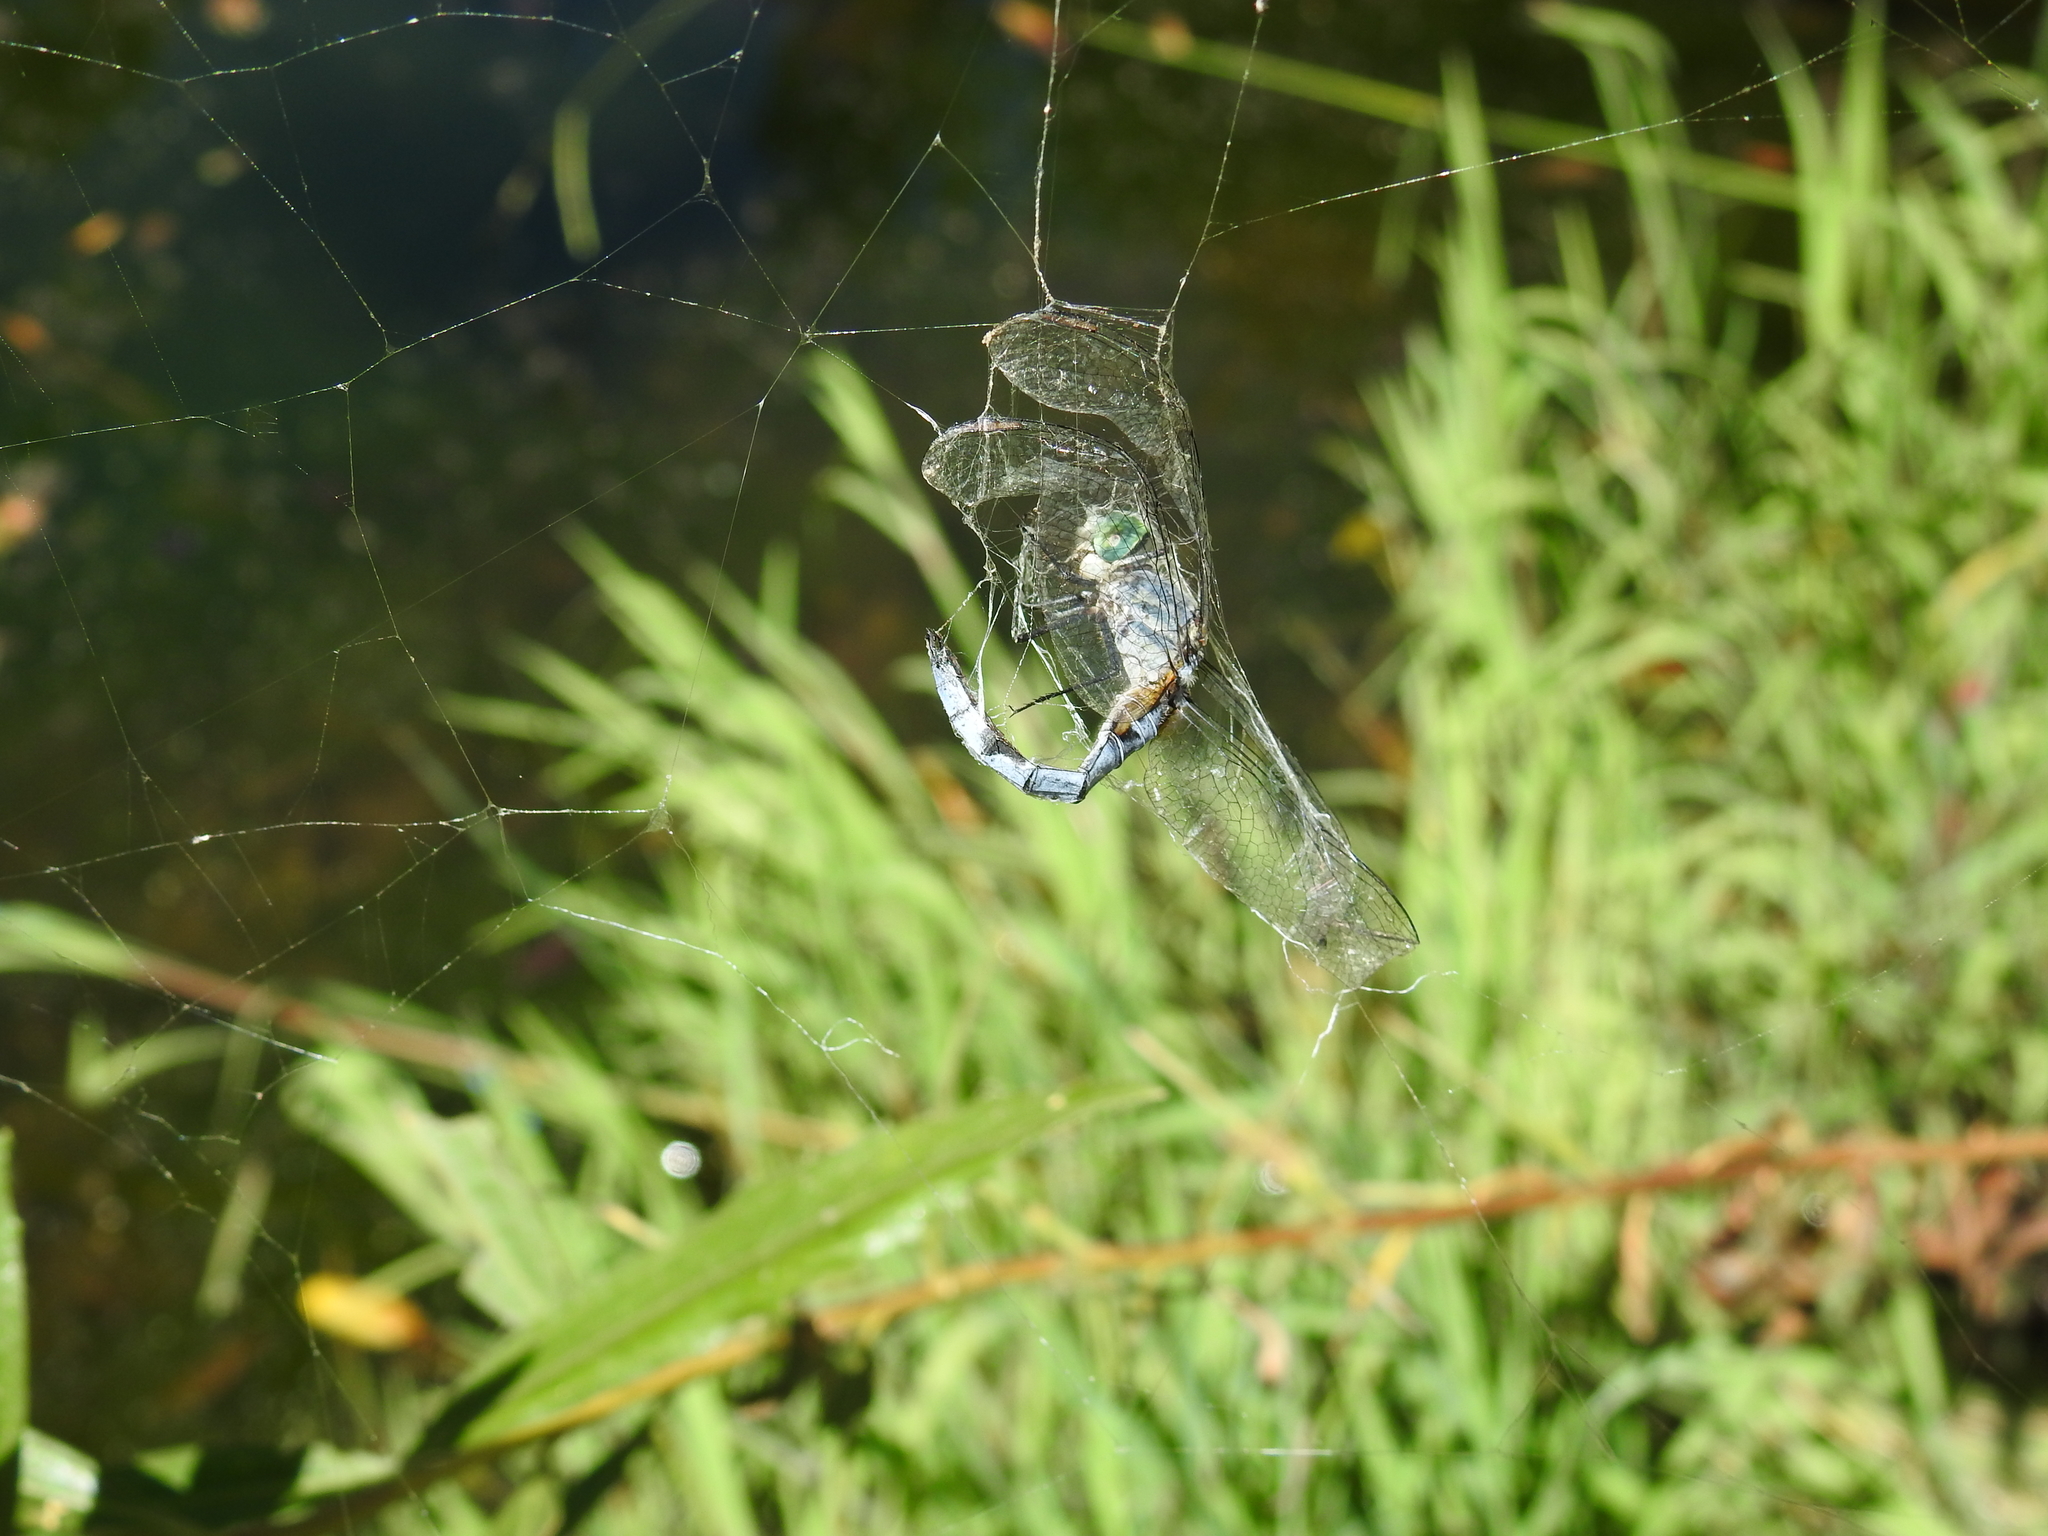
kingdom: Animalia
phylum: Arthropoda
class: Insecta
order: Odonata
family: Libellulidae
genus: Pachydiplax
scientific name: Pachydiplax longipennis
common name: Blue dasher
